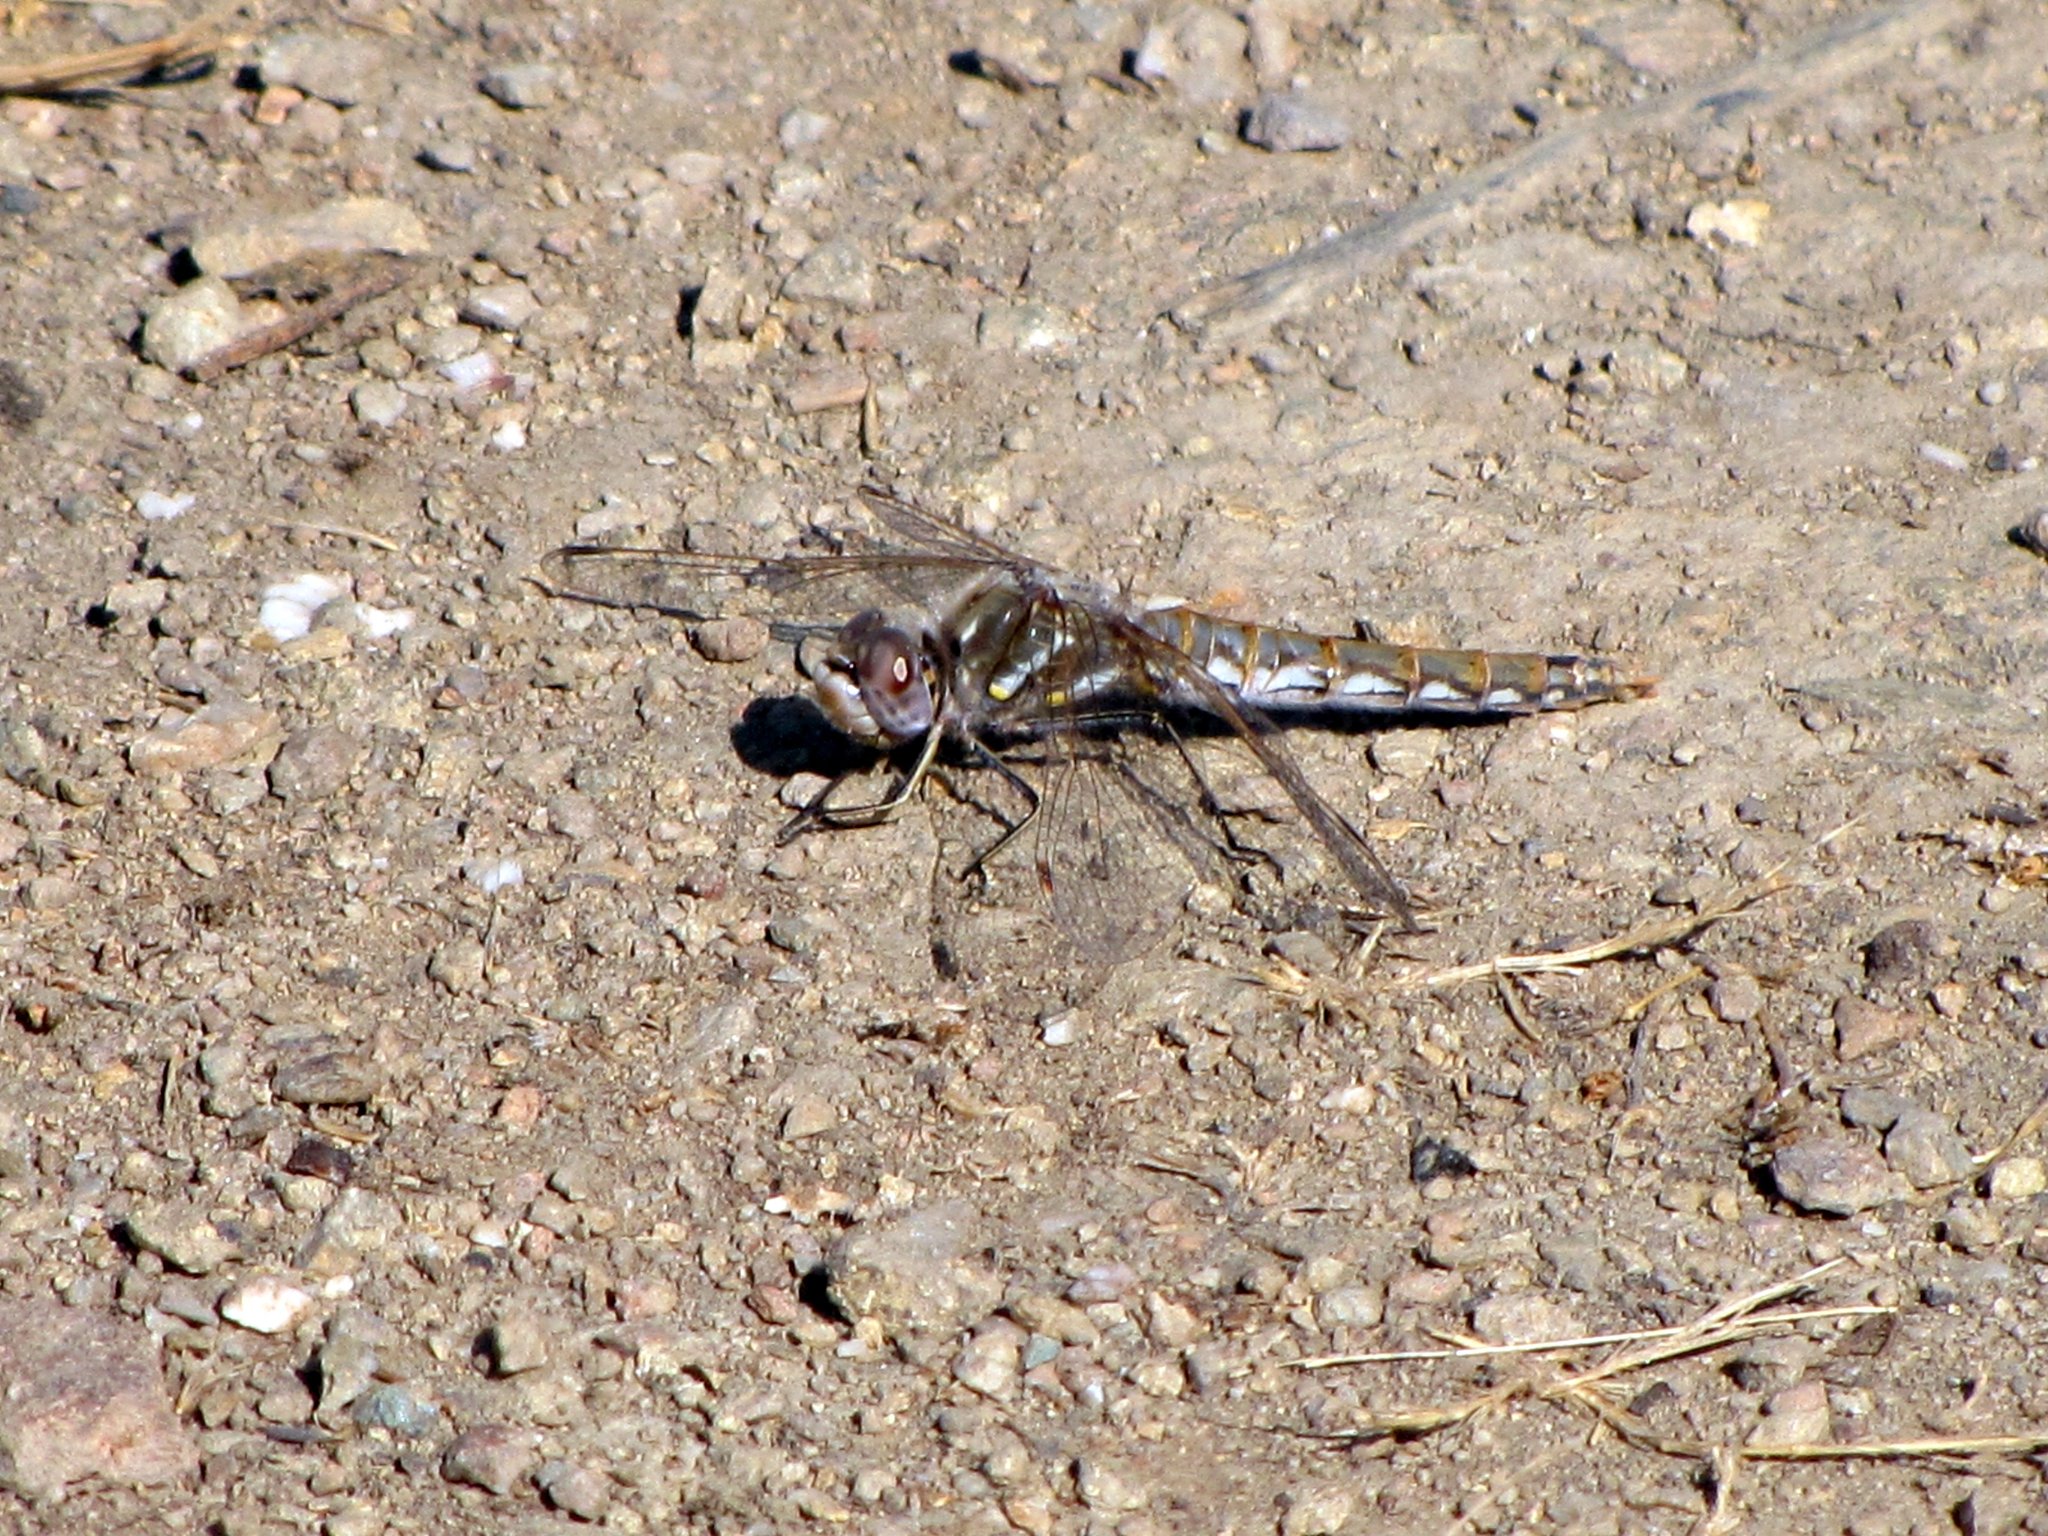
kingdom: Animalia
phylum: Arthropoda
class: Insecta
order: Odonata
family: Libellulidae
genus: Sympetrum
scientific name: Sympetrum corruptum
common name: Variegated meadowhawk
